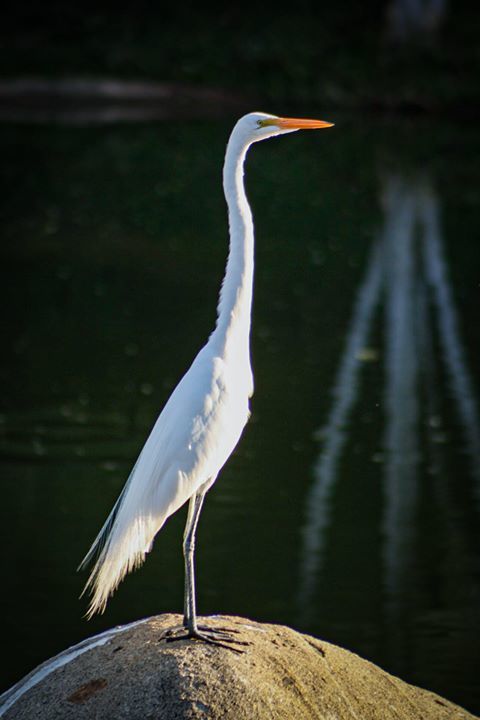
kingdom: Animalia
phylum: Chordata
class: Aves
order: Pelecaniformes
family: Ardeidae
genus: Ardea
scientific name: Ardea alba
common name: Great egret
